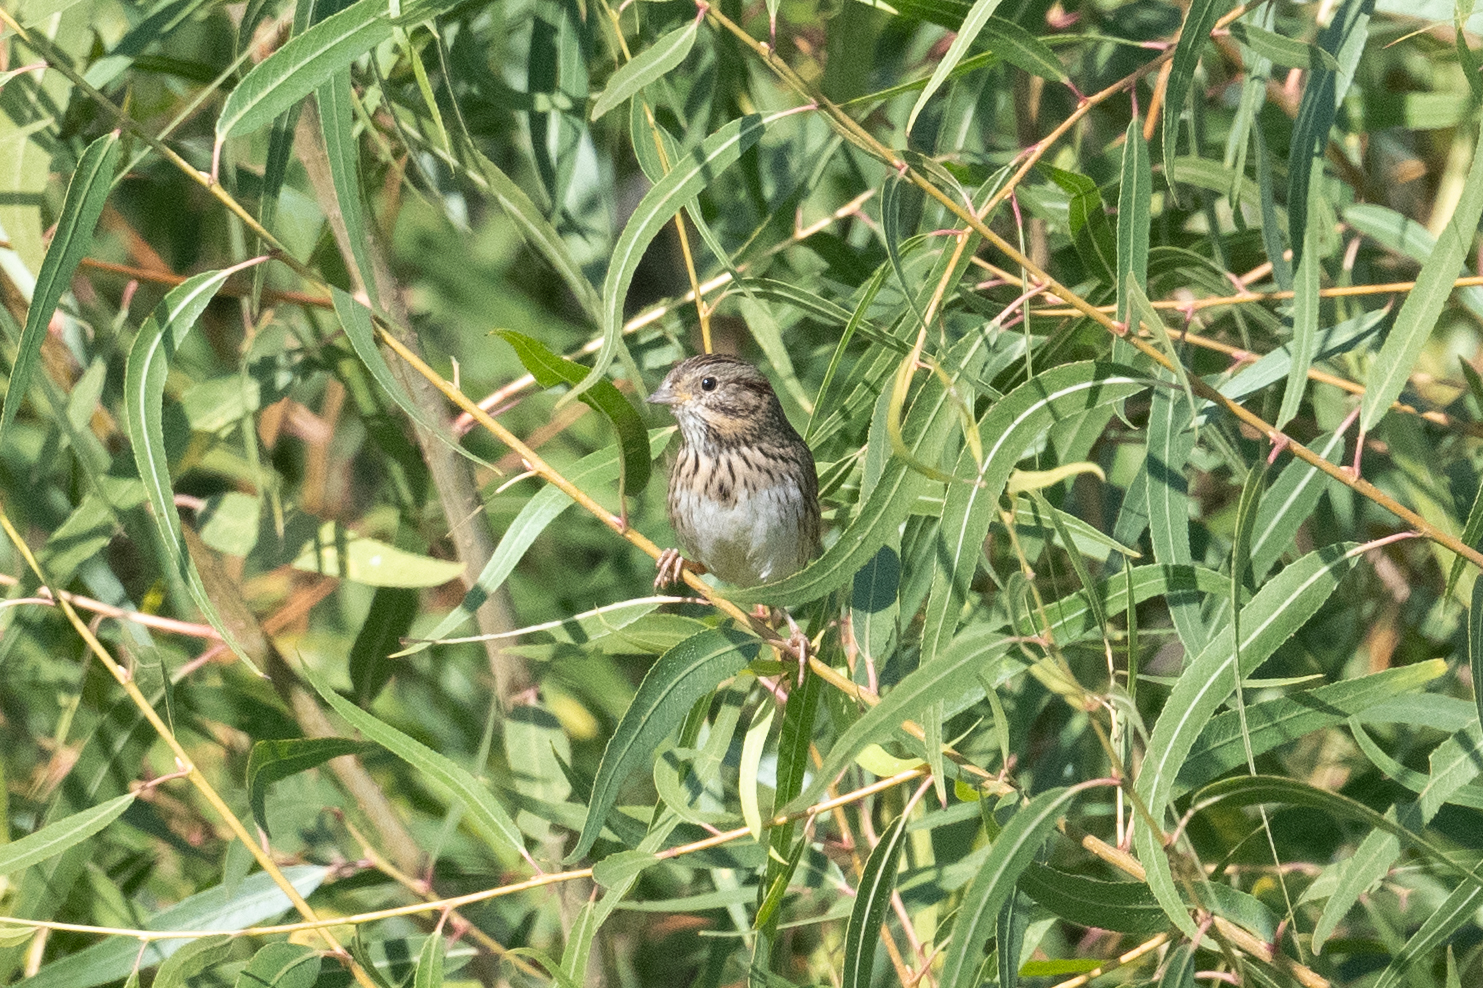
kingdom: Animalia
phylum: Chordata
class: Aves
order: Passeriformes
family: Passerellidae
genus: Melospiza
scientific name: Melospiza lincolnii
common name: Lincoln's sparrow
